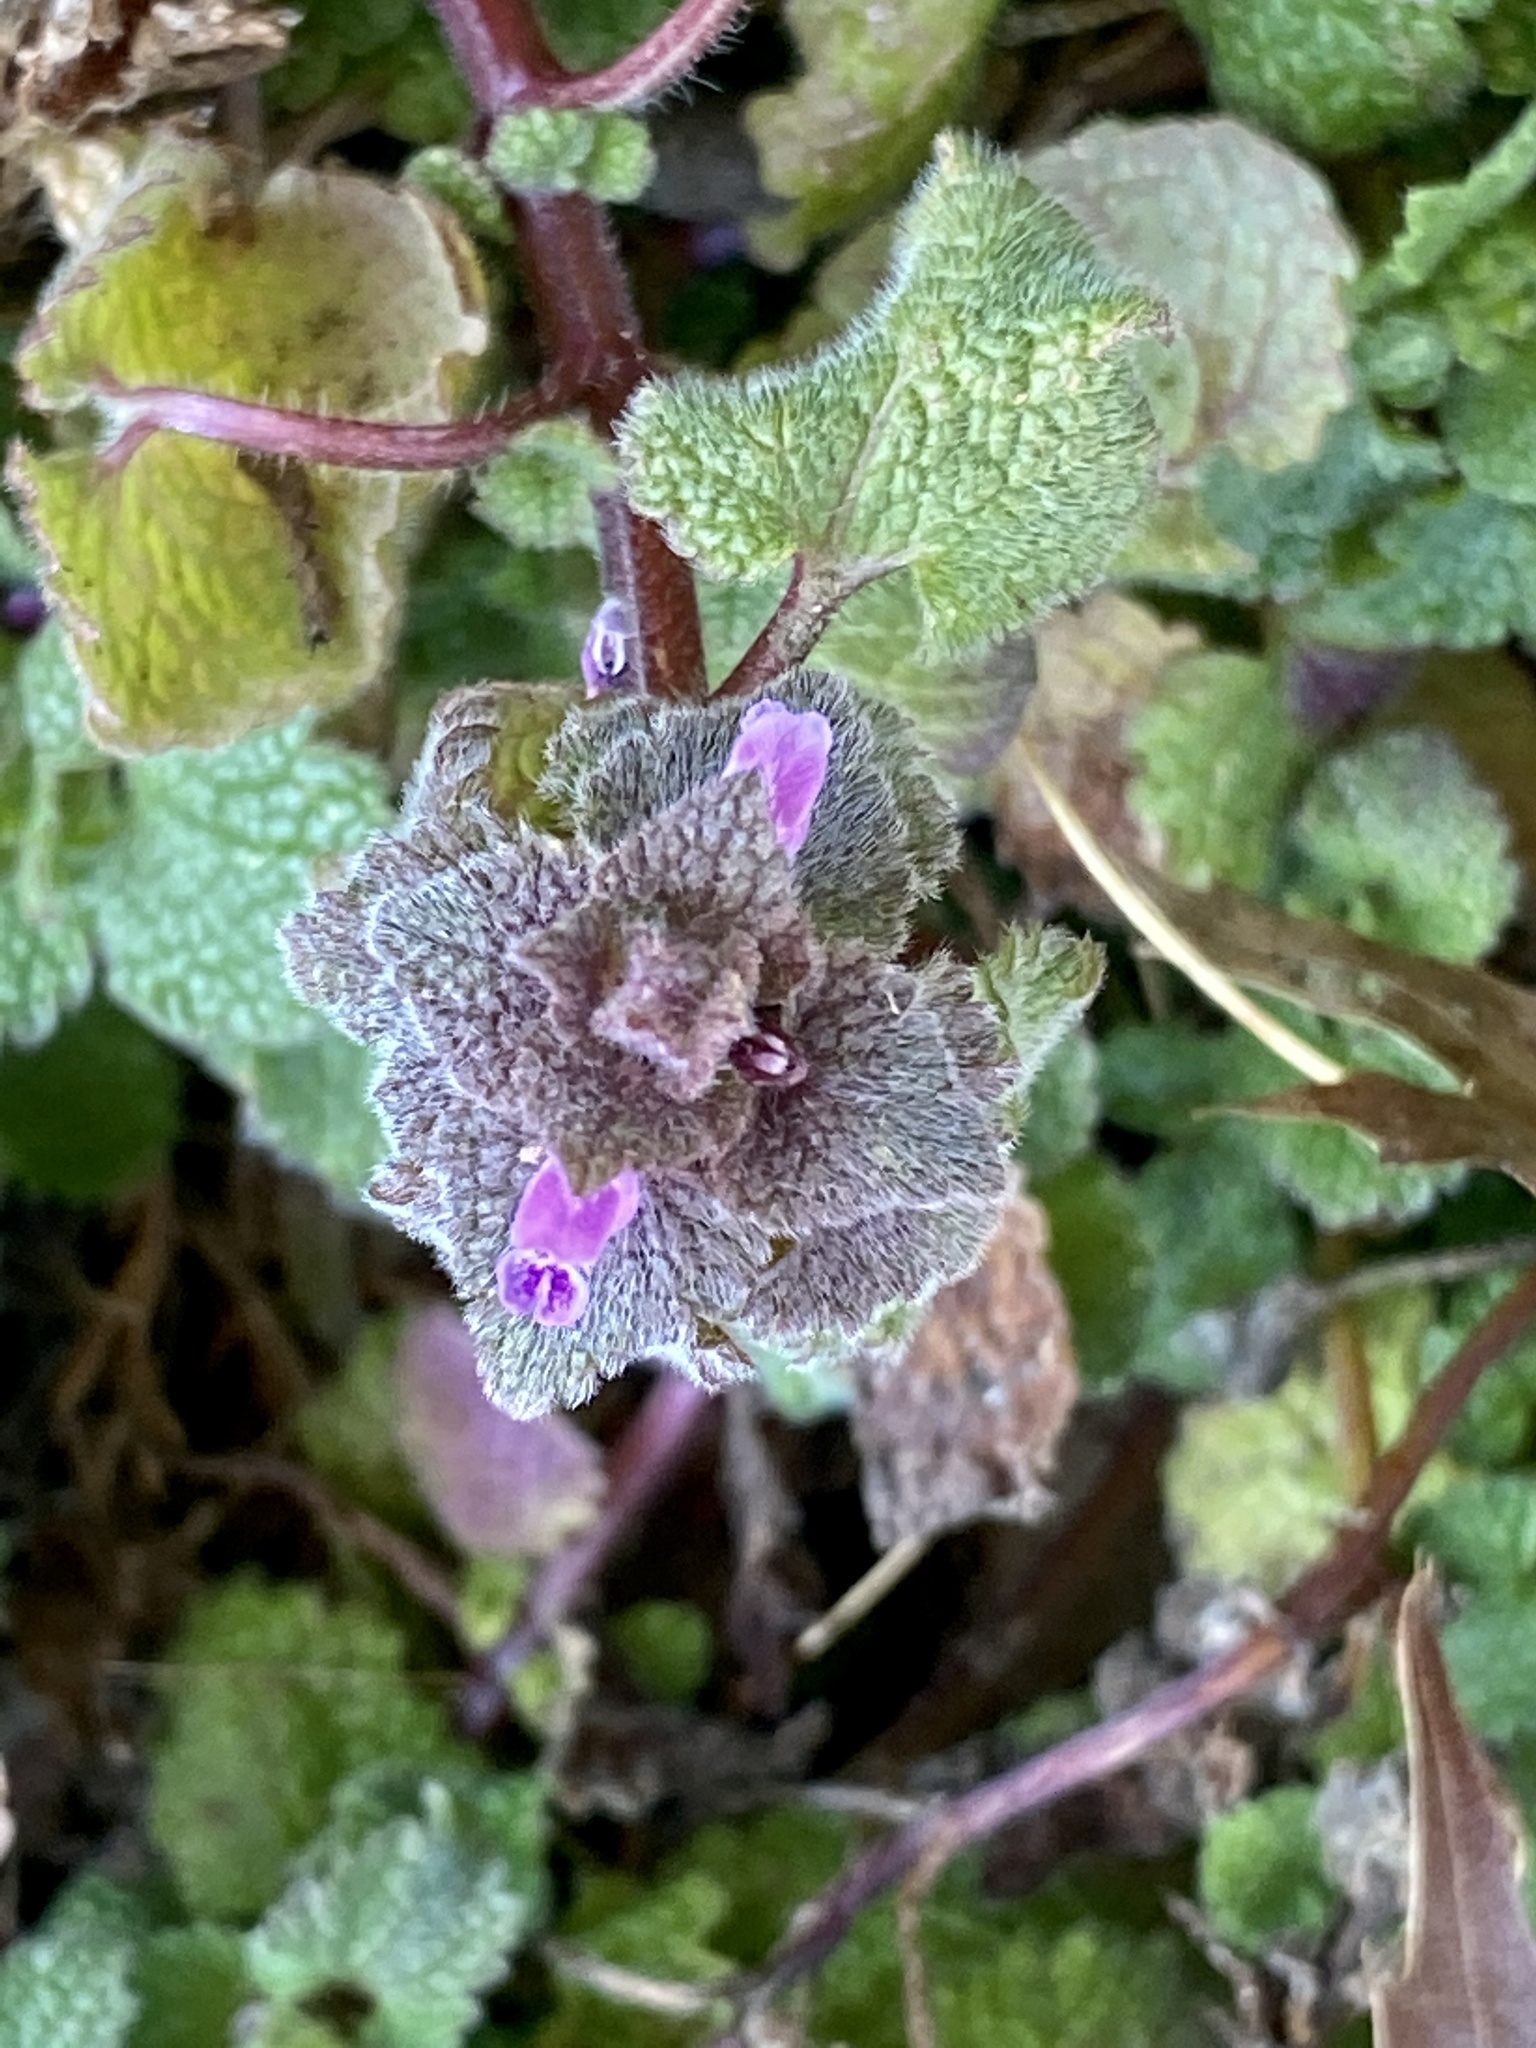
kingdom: Plantae
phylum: Tracheophyta
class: Magnoliopsida
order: Lamiales
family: Lamiaceae
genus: Lamium
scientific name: Lamium purpureum
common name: Red dead-nettle
